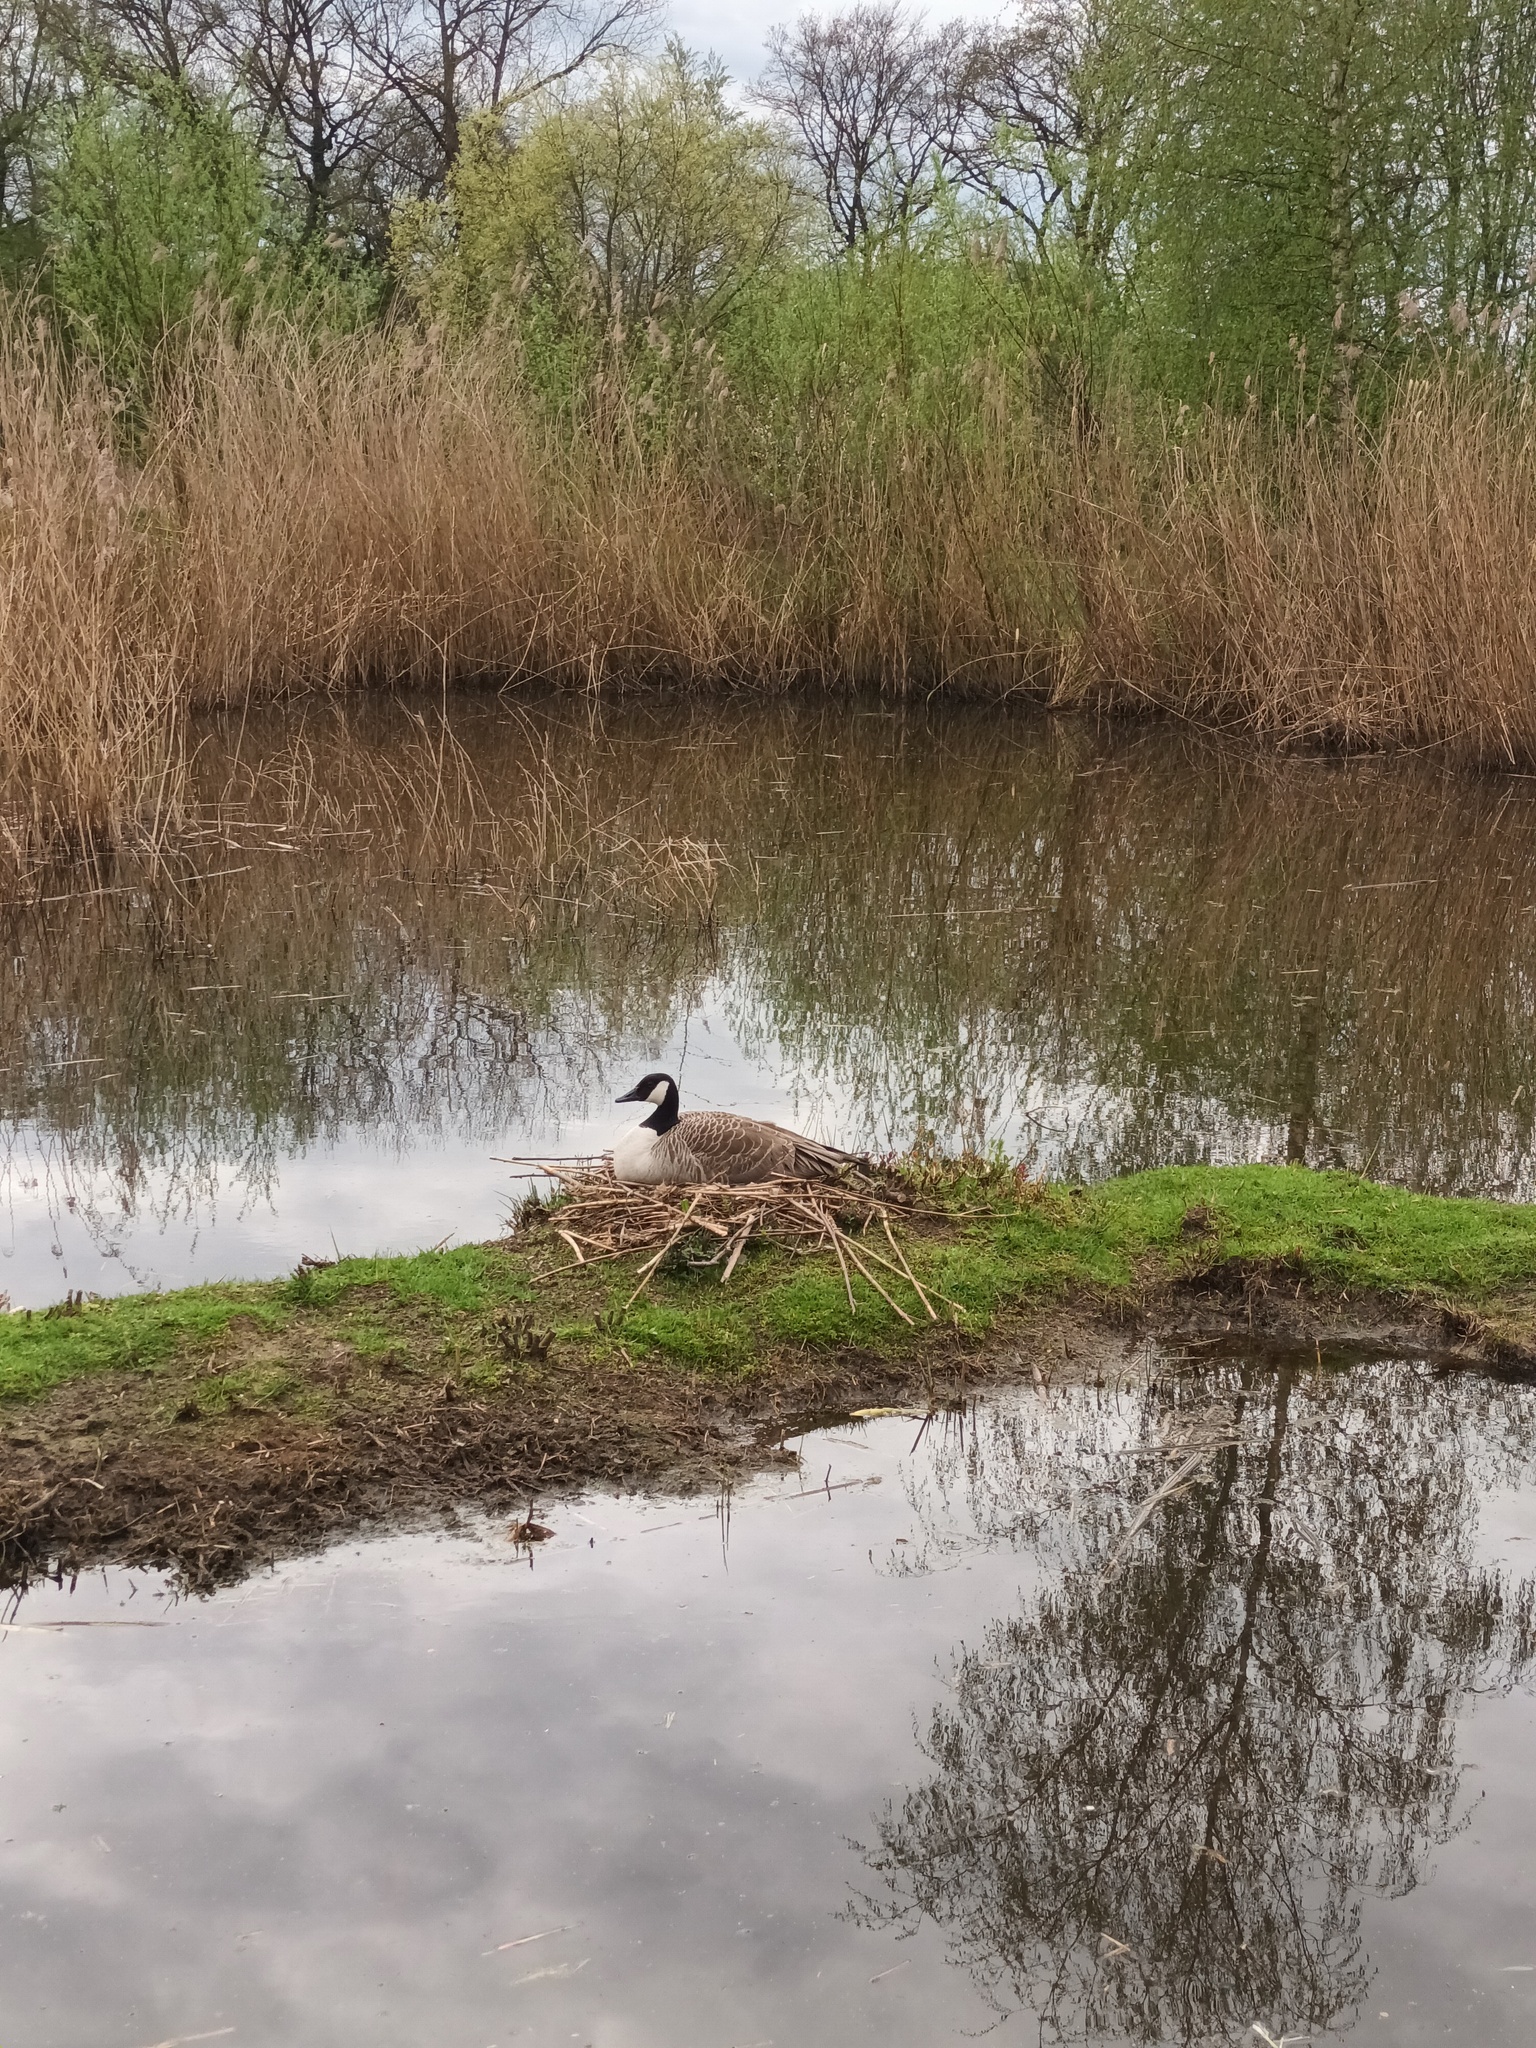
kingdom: Animalia
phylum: Chordata
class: Aves
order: Anseriformes
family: Anatidae
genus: Branta
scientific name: Branta canadensis
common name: Canada goose
